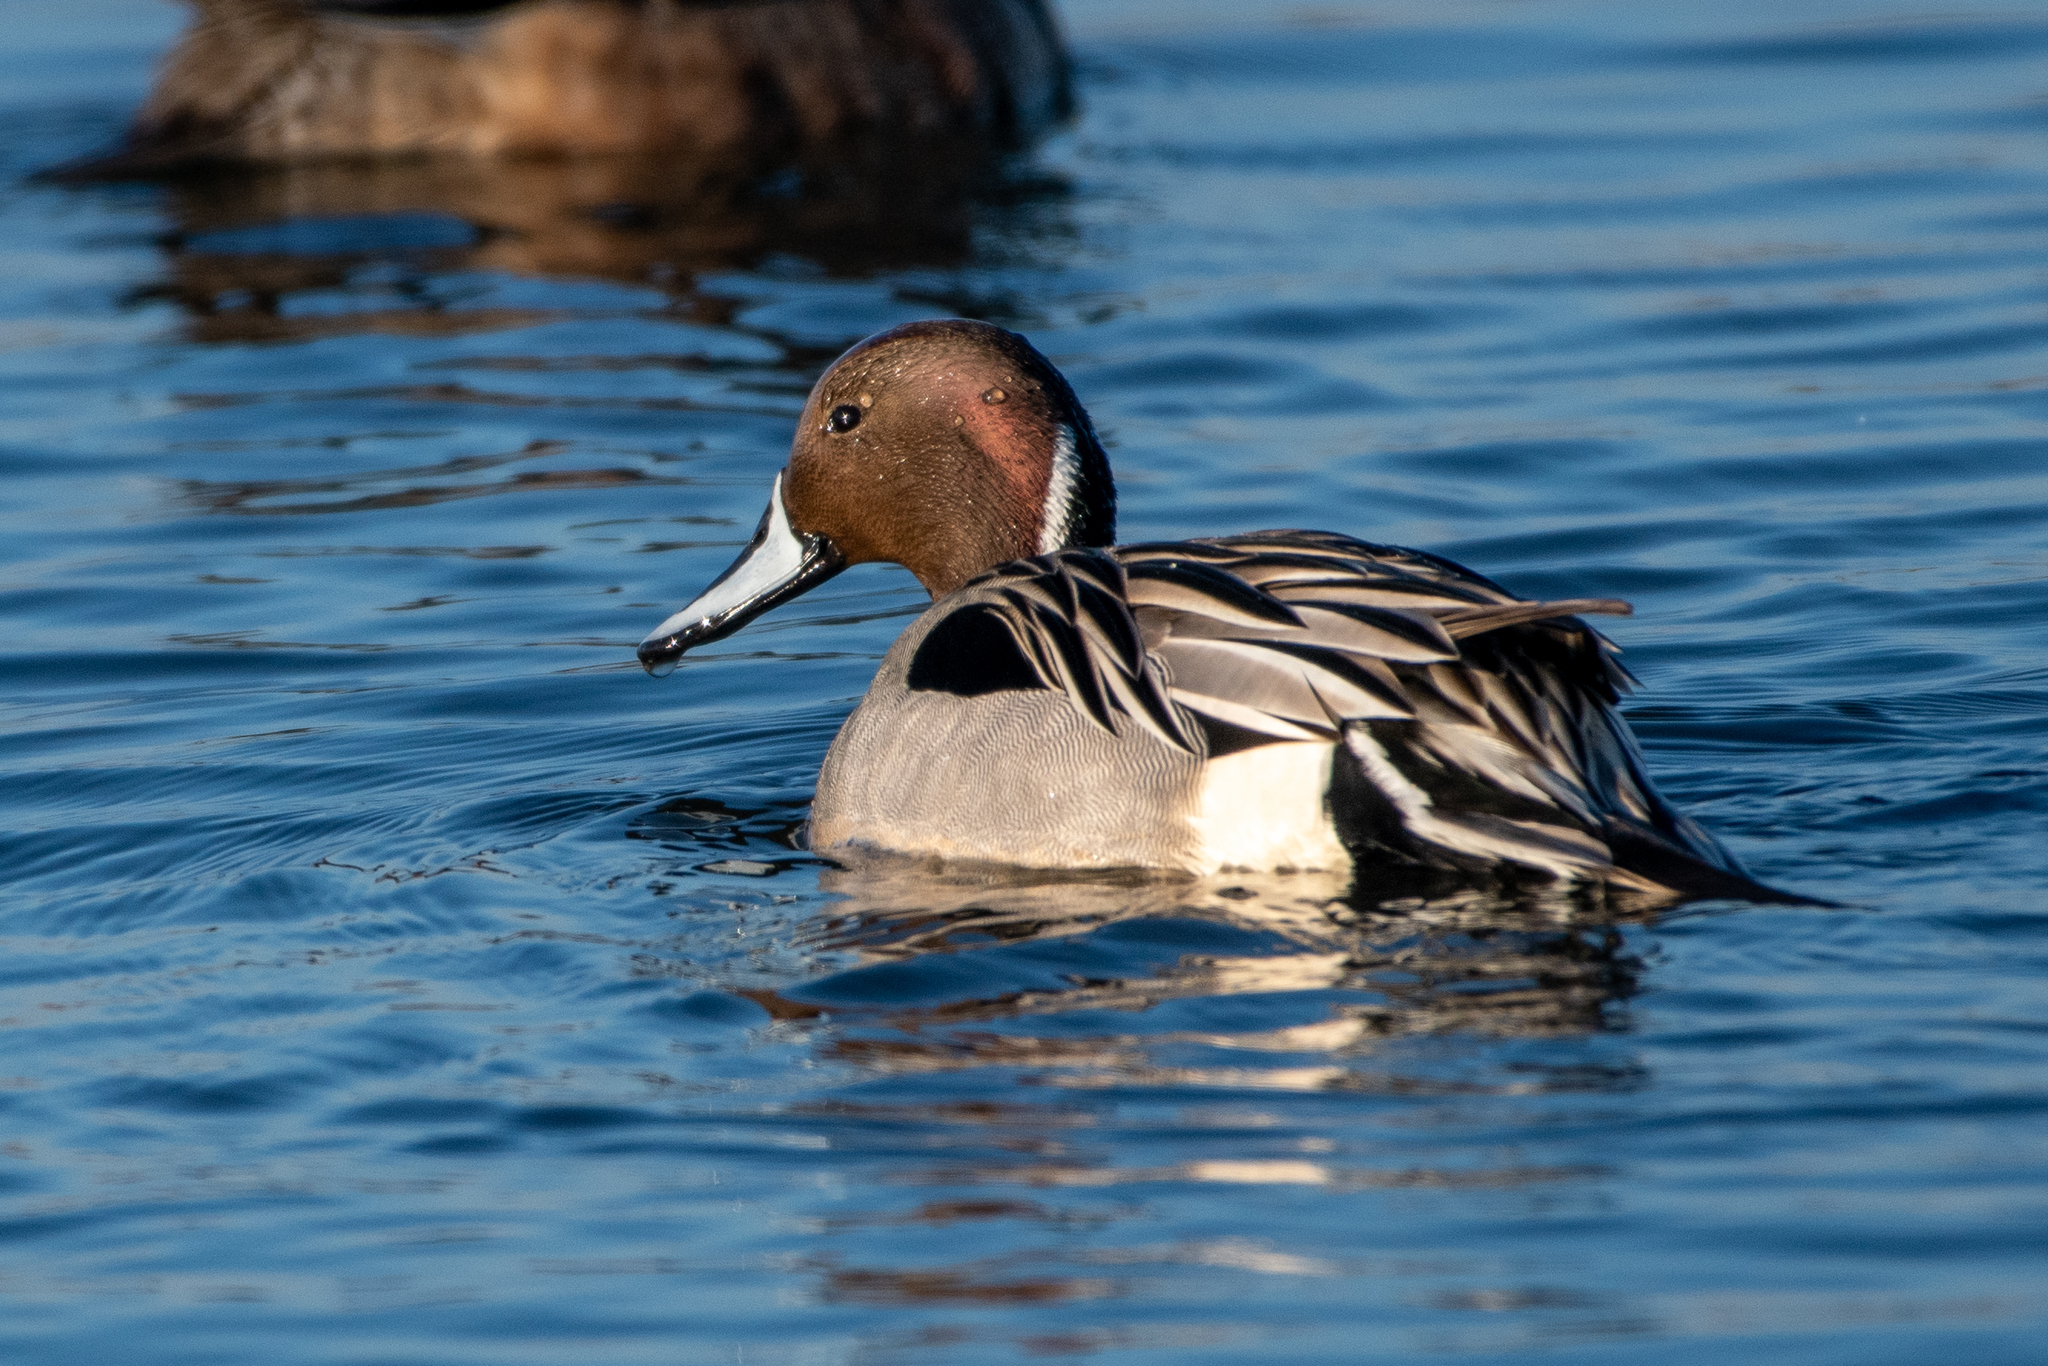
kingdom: Animalia
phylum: Chordata
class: Aves
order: Anseriformes
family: Anatidae
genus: Anas
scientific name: Anas acuta
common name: Northern pintail
